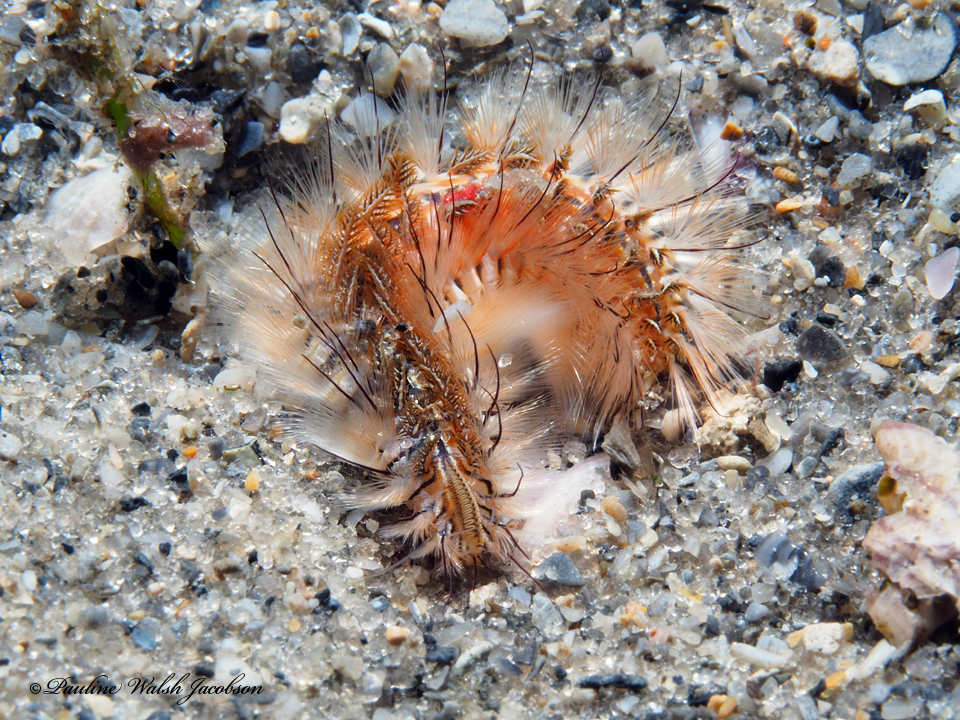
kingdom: Animalia
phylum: Annelida
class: Polychaeta
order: Amphinomida
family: Amphinomidae
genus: Chloeia
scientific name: Chloeia viridis
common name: Red-tipped fireworm
